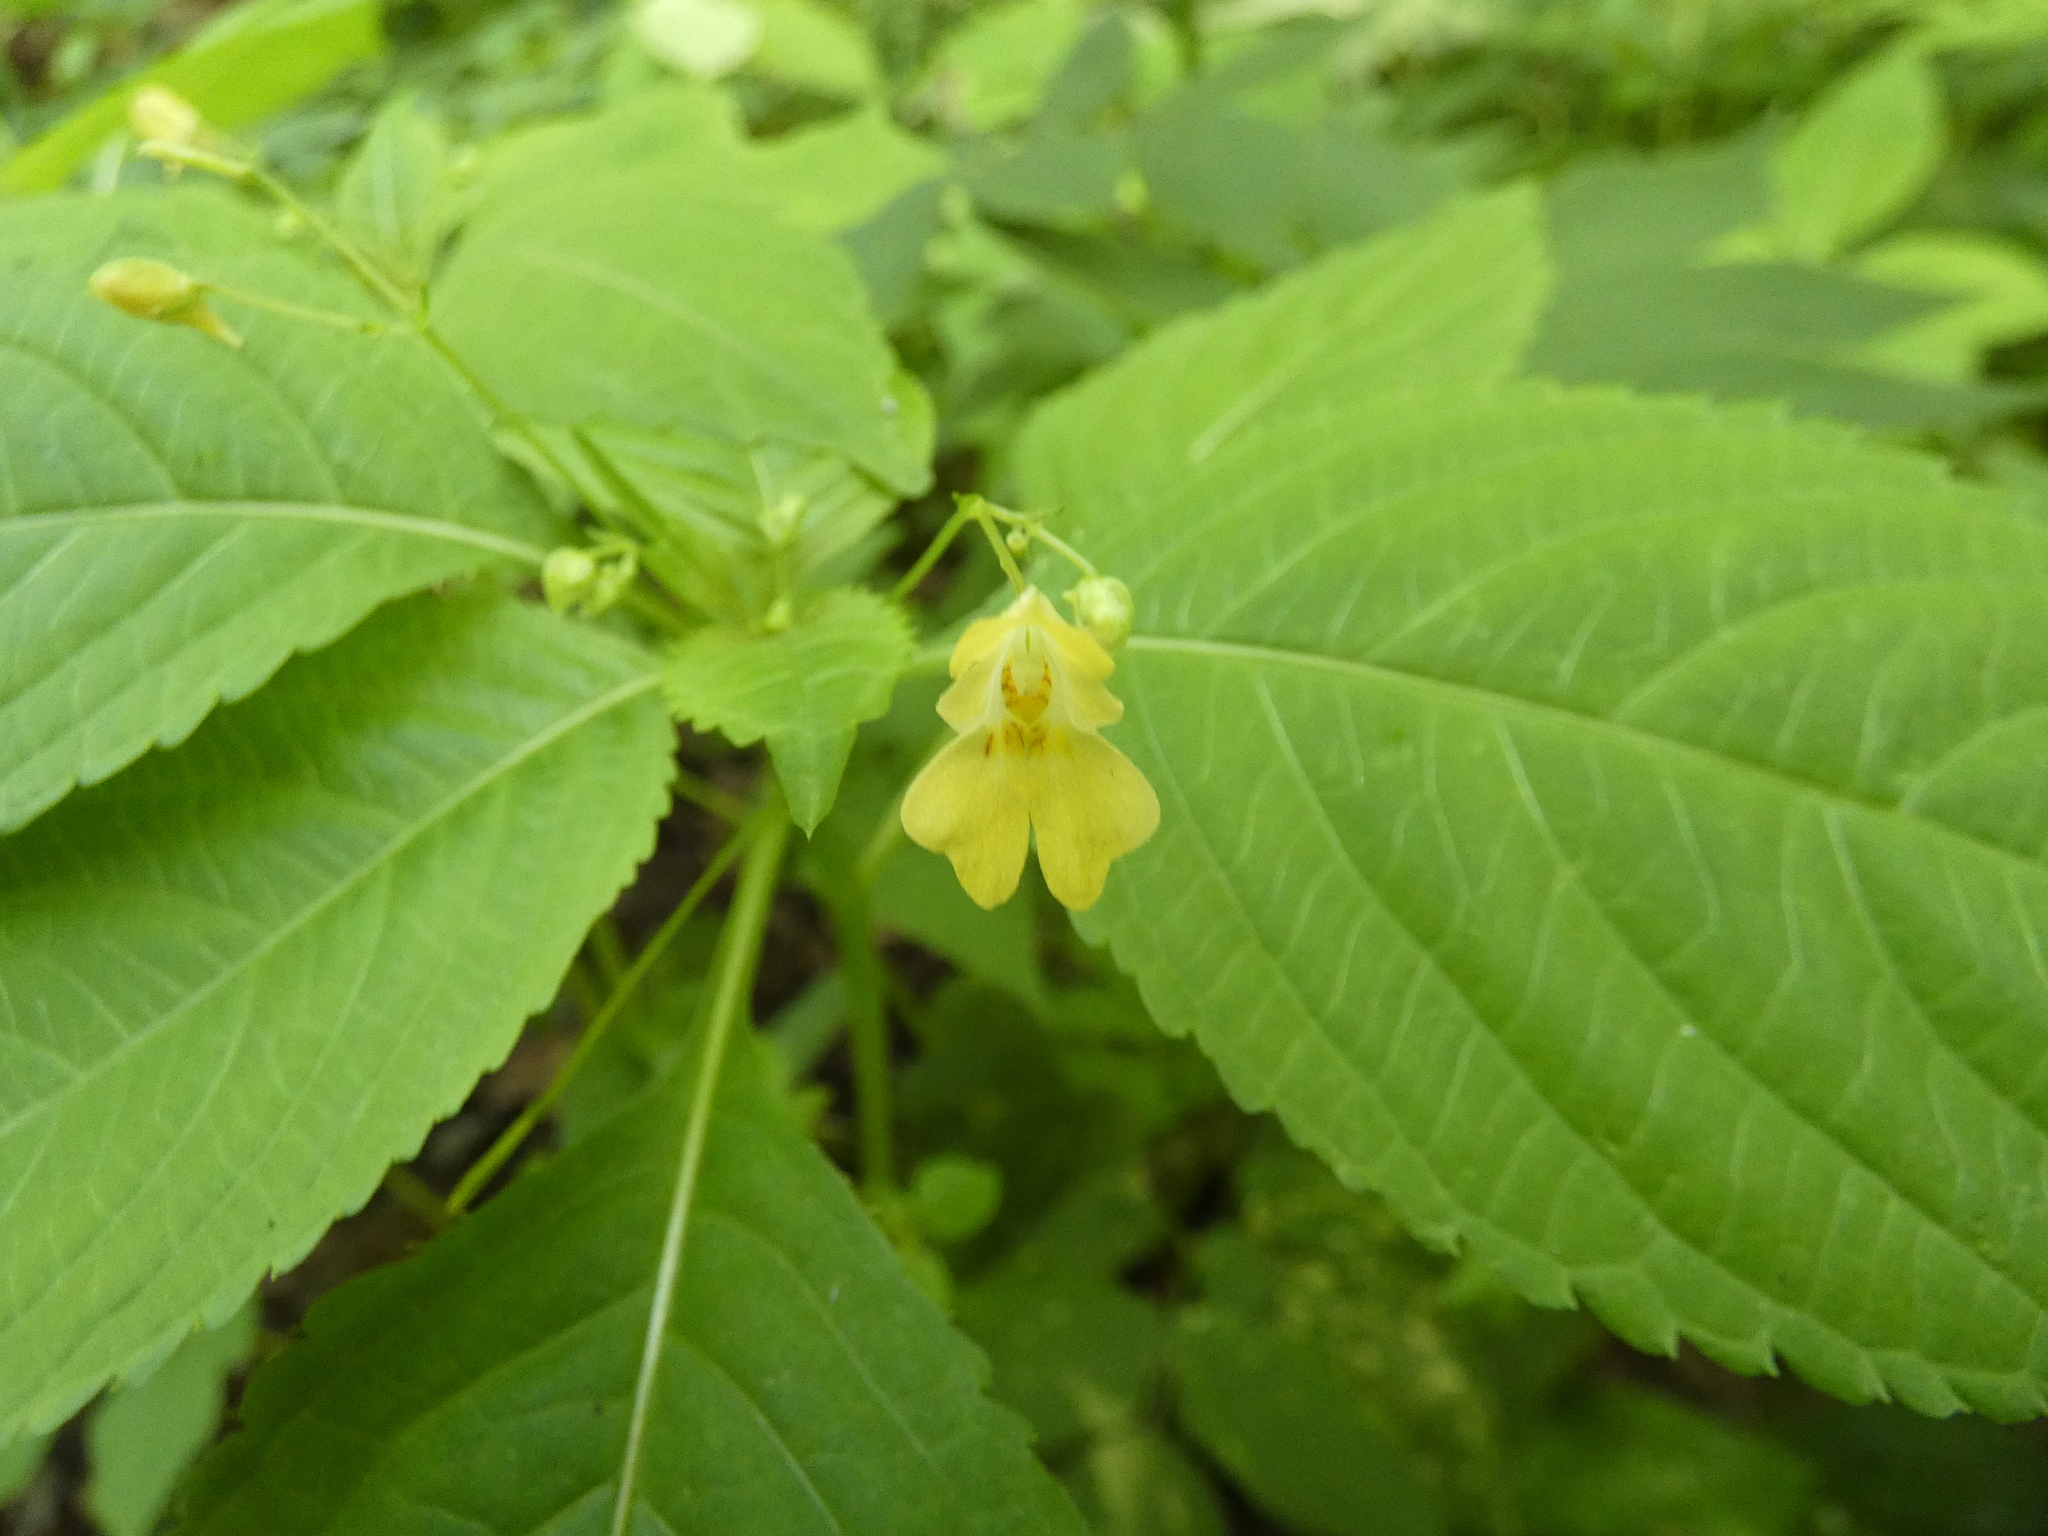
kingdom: Plantae
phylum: Tracheophyta
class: Magnoliopsida
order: Ericales
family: Balsaminaceae
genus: Impatiens
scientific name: Impatiens parviflora
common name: Small balsam
